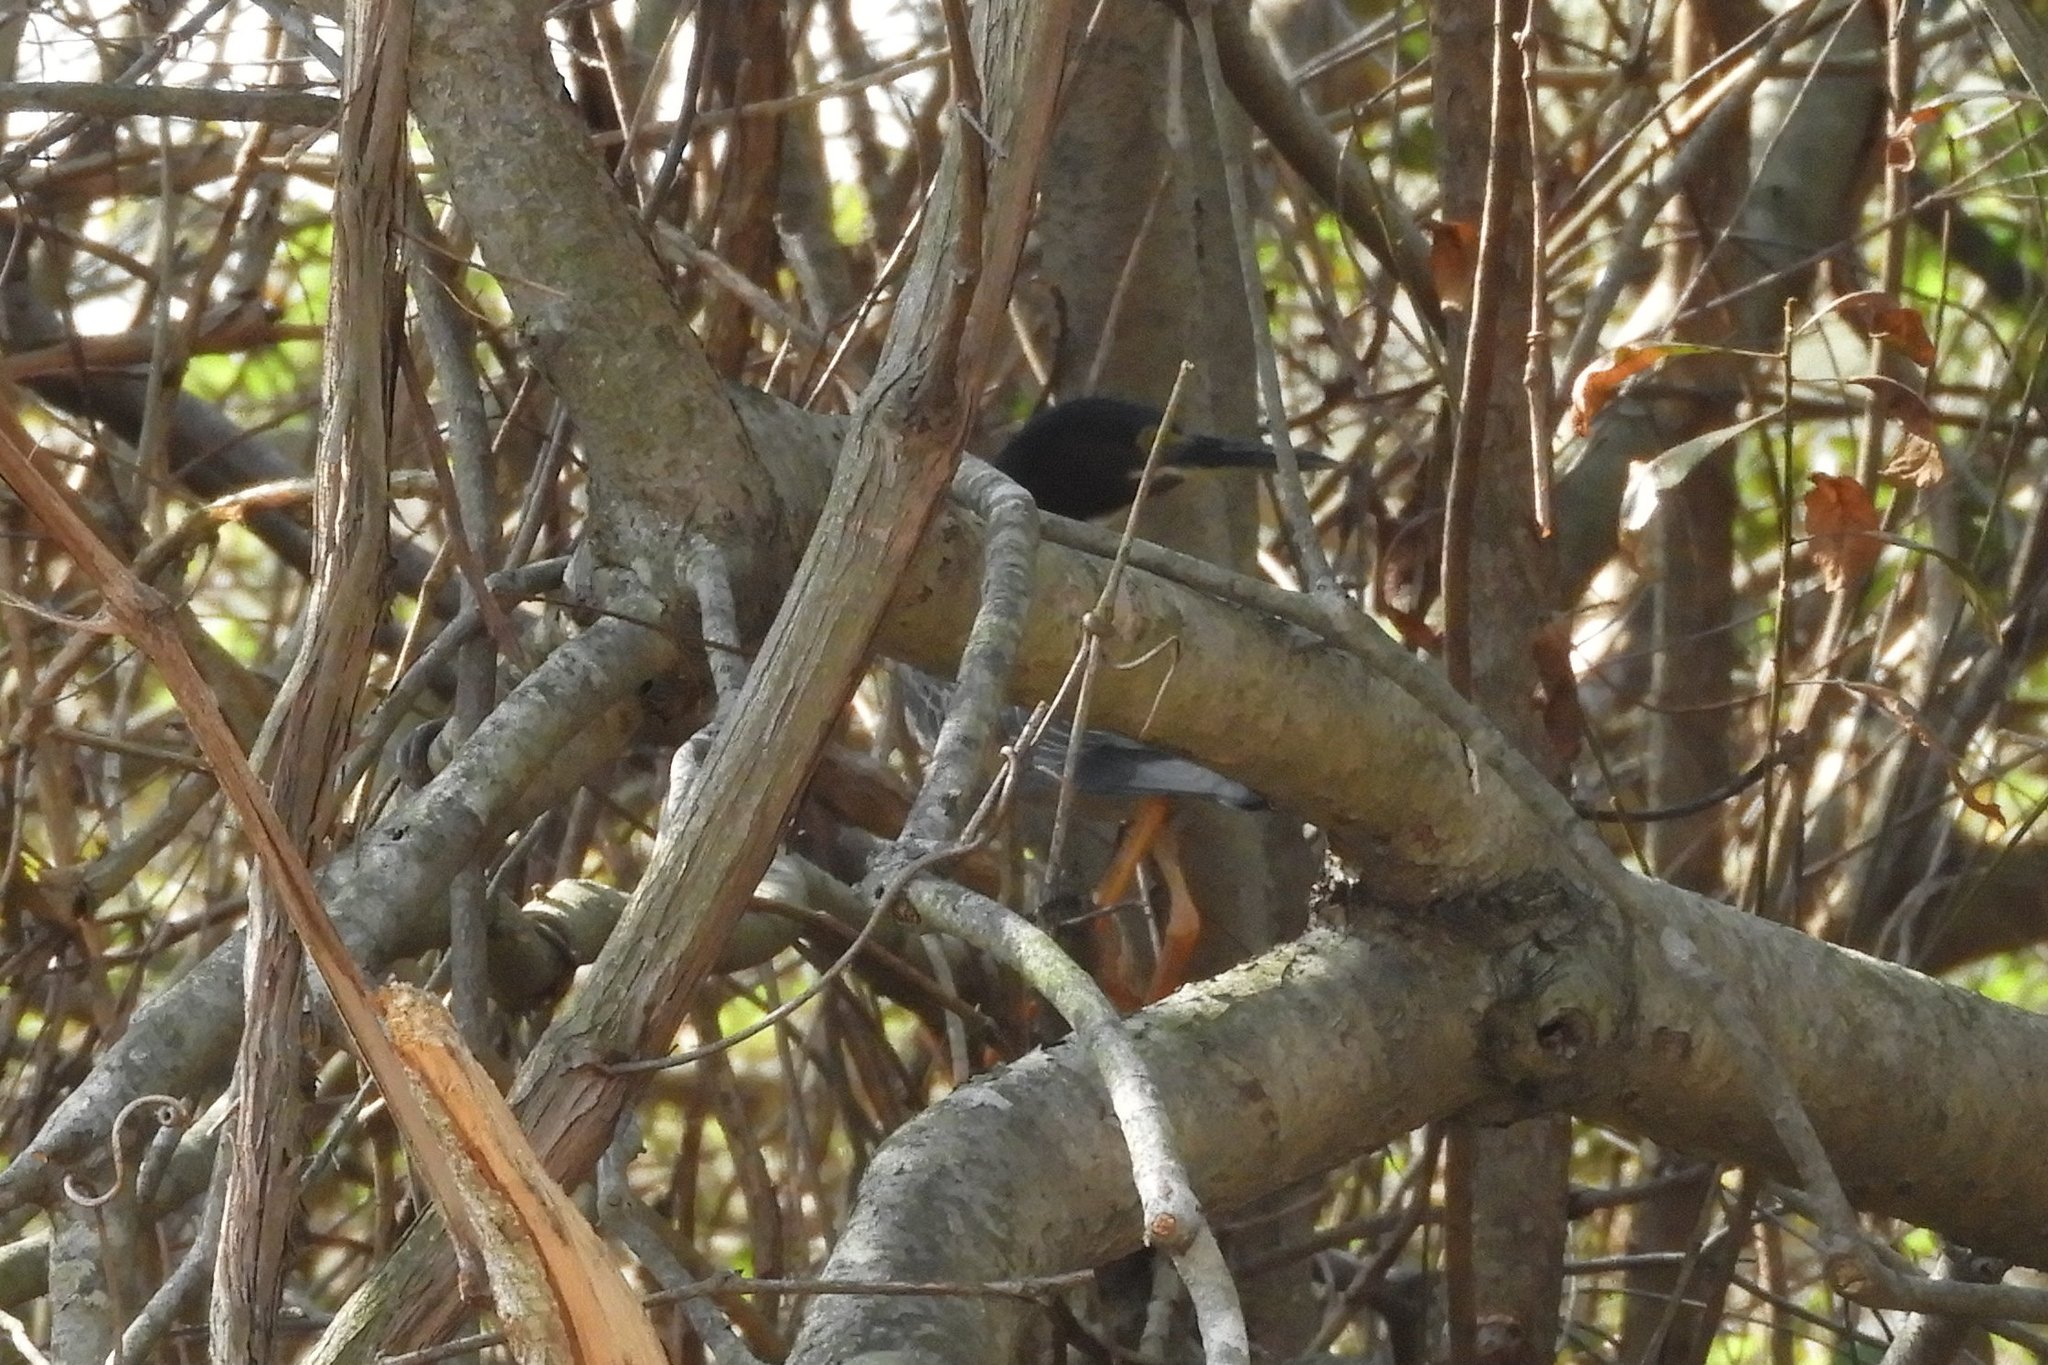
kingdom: Animalia
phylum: Chordata
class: Aves
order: Pelecaniformes
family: Ardeidae
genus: Butorides
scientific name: Butorides virescens
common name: Green heron
